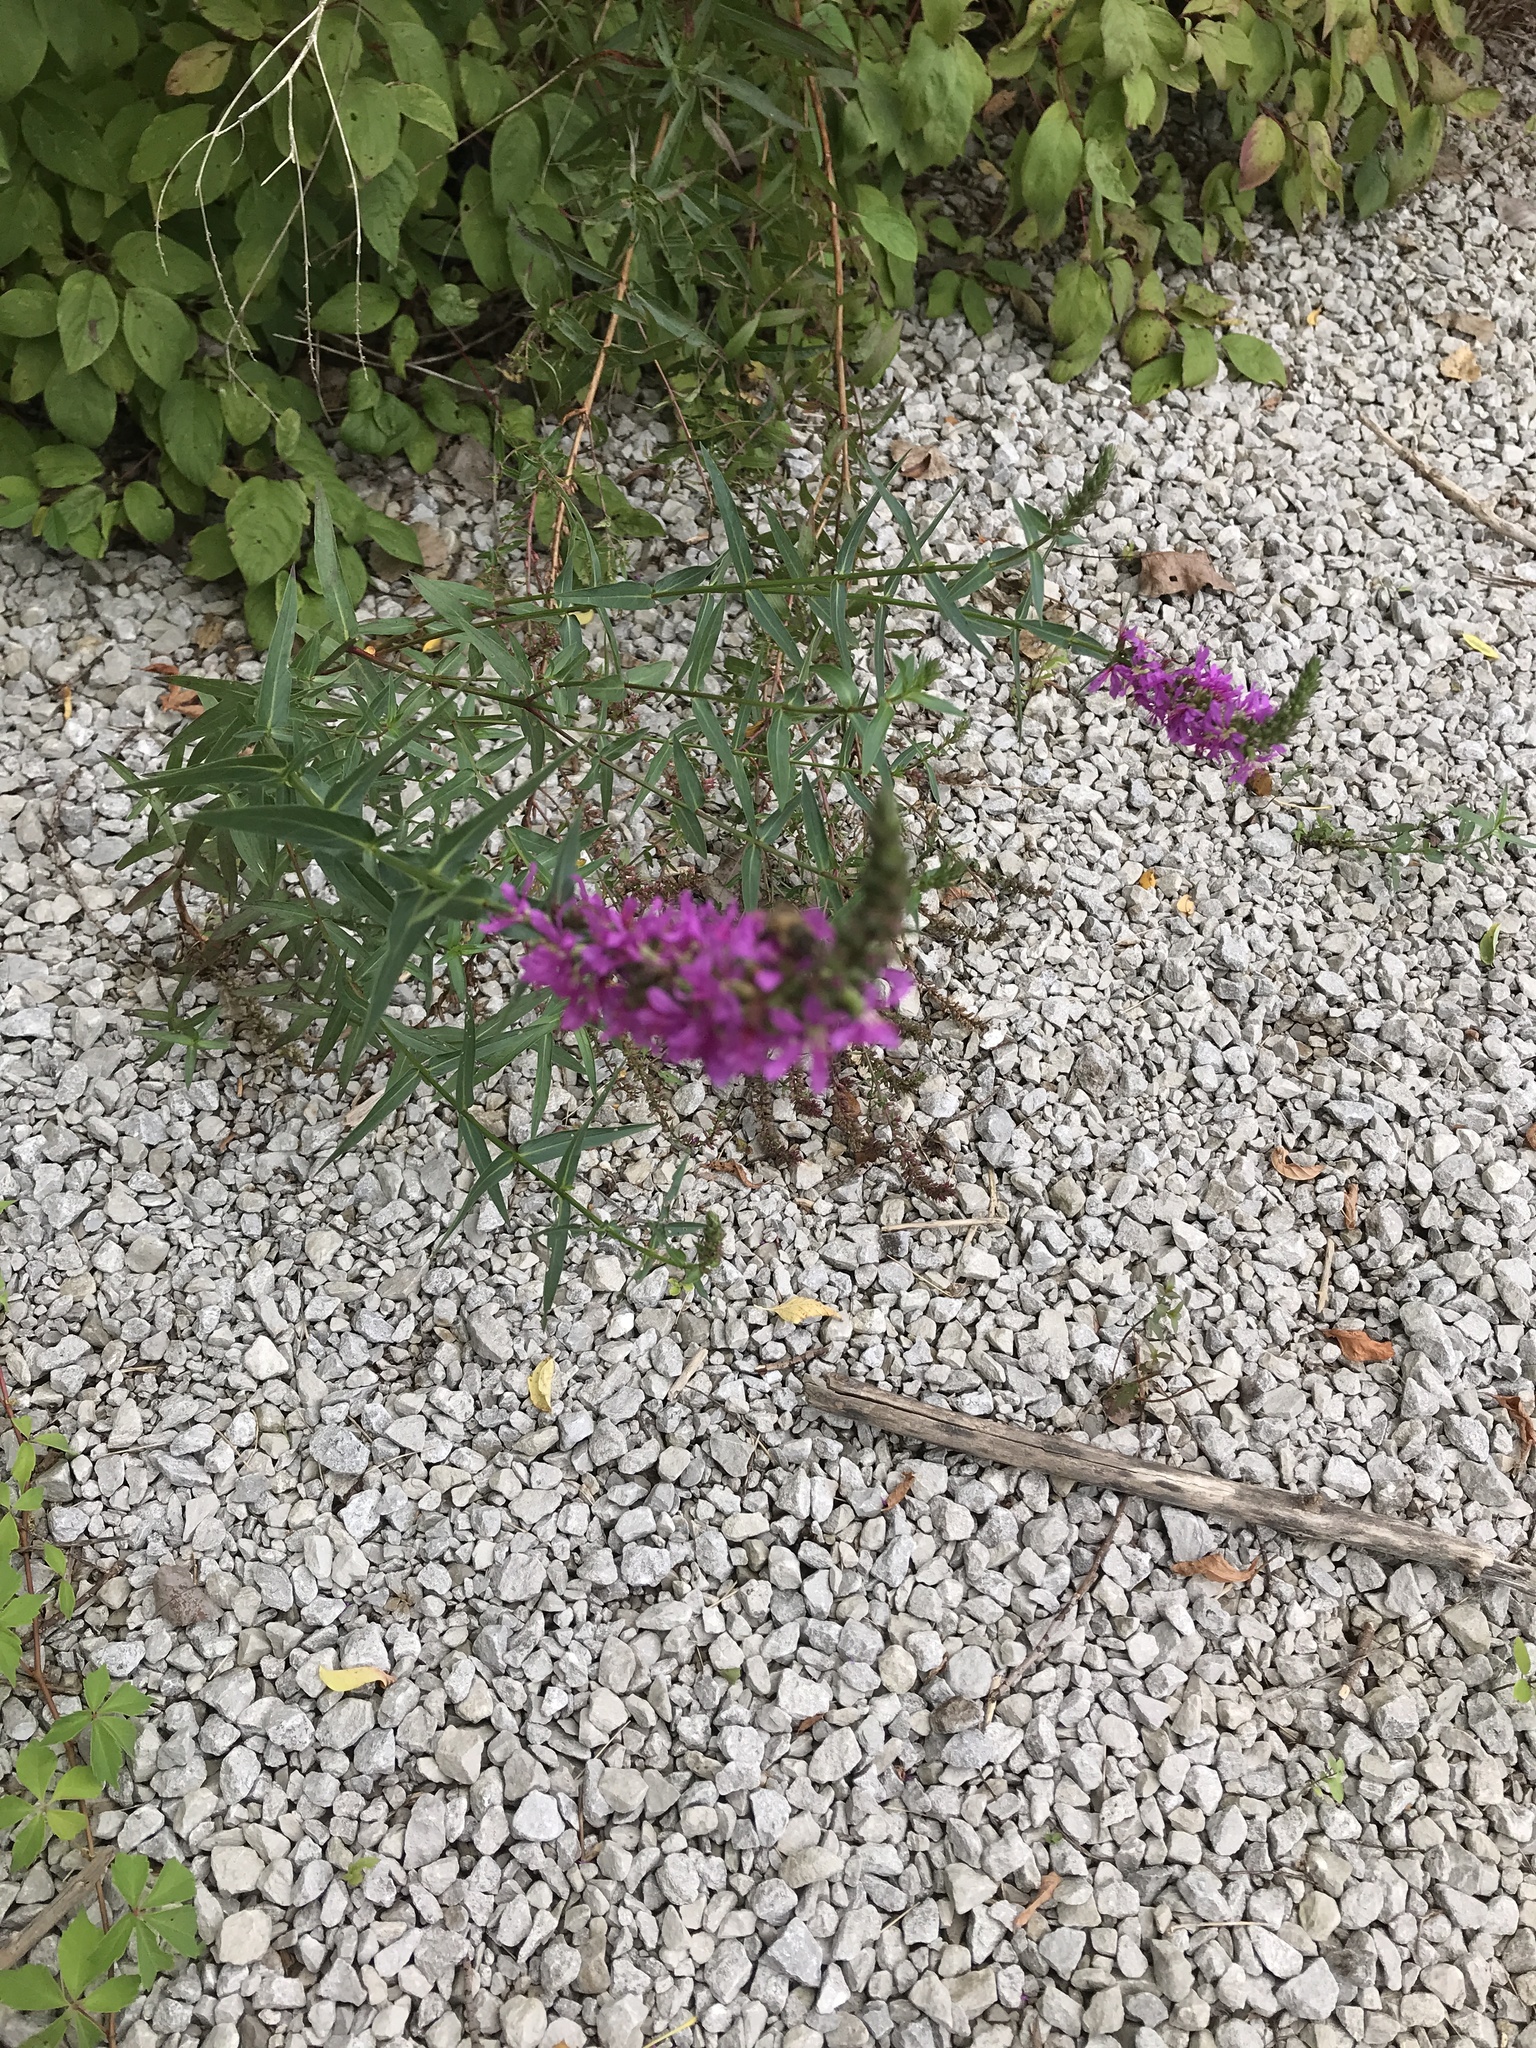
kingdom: Plantae
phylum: Tracheophyta
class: Magnoliopsida
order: Myrtales
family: Lythraceae
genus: Lythrum
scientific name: Lythrum salicaria
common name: Purple loosestrife
